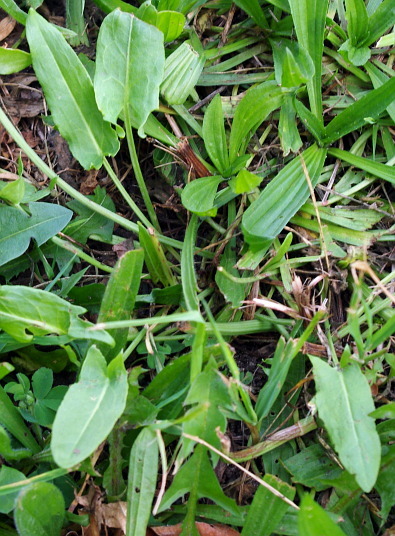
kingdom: Plantae
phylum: Tracheophyta
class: Magnoliopsida
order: Caryophyllales
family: Polygonaceae
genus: Rumex
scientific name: Rumex thyrsiflorus
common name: Garden sorrel
